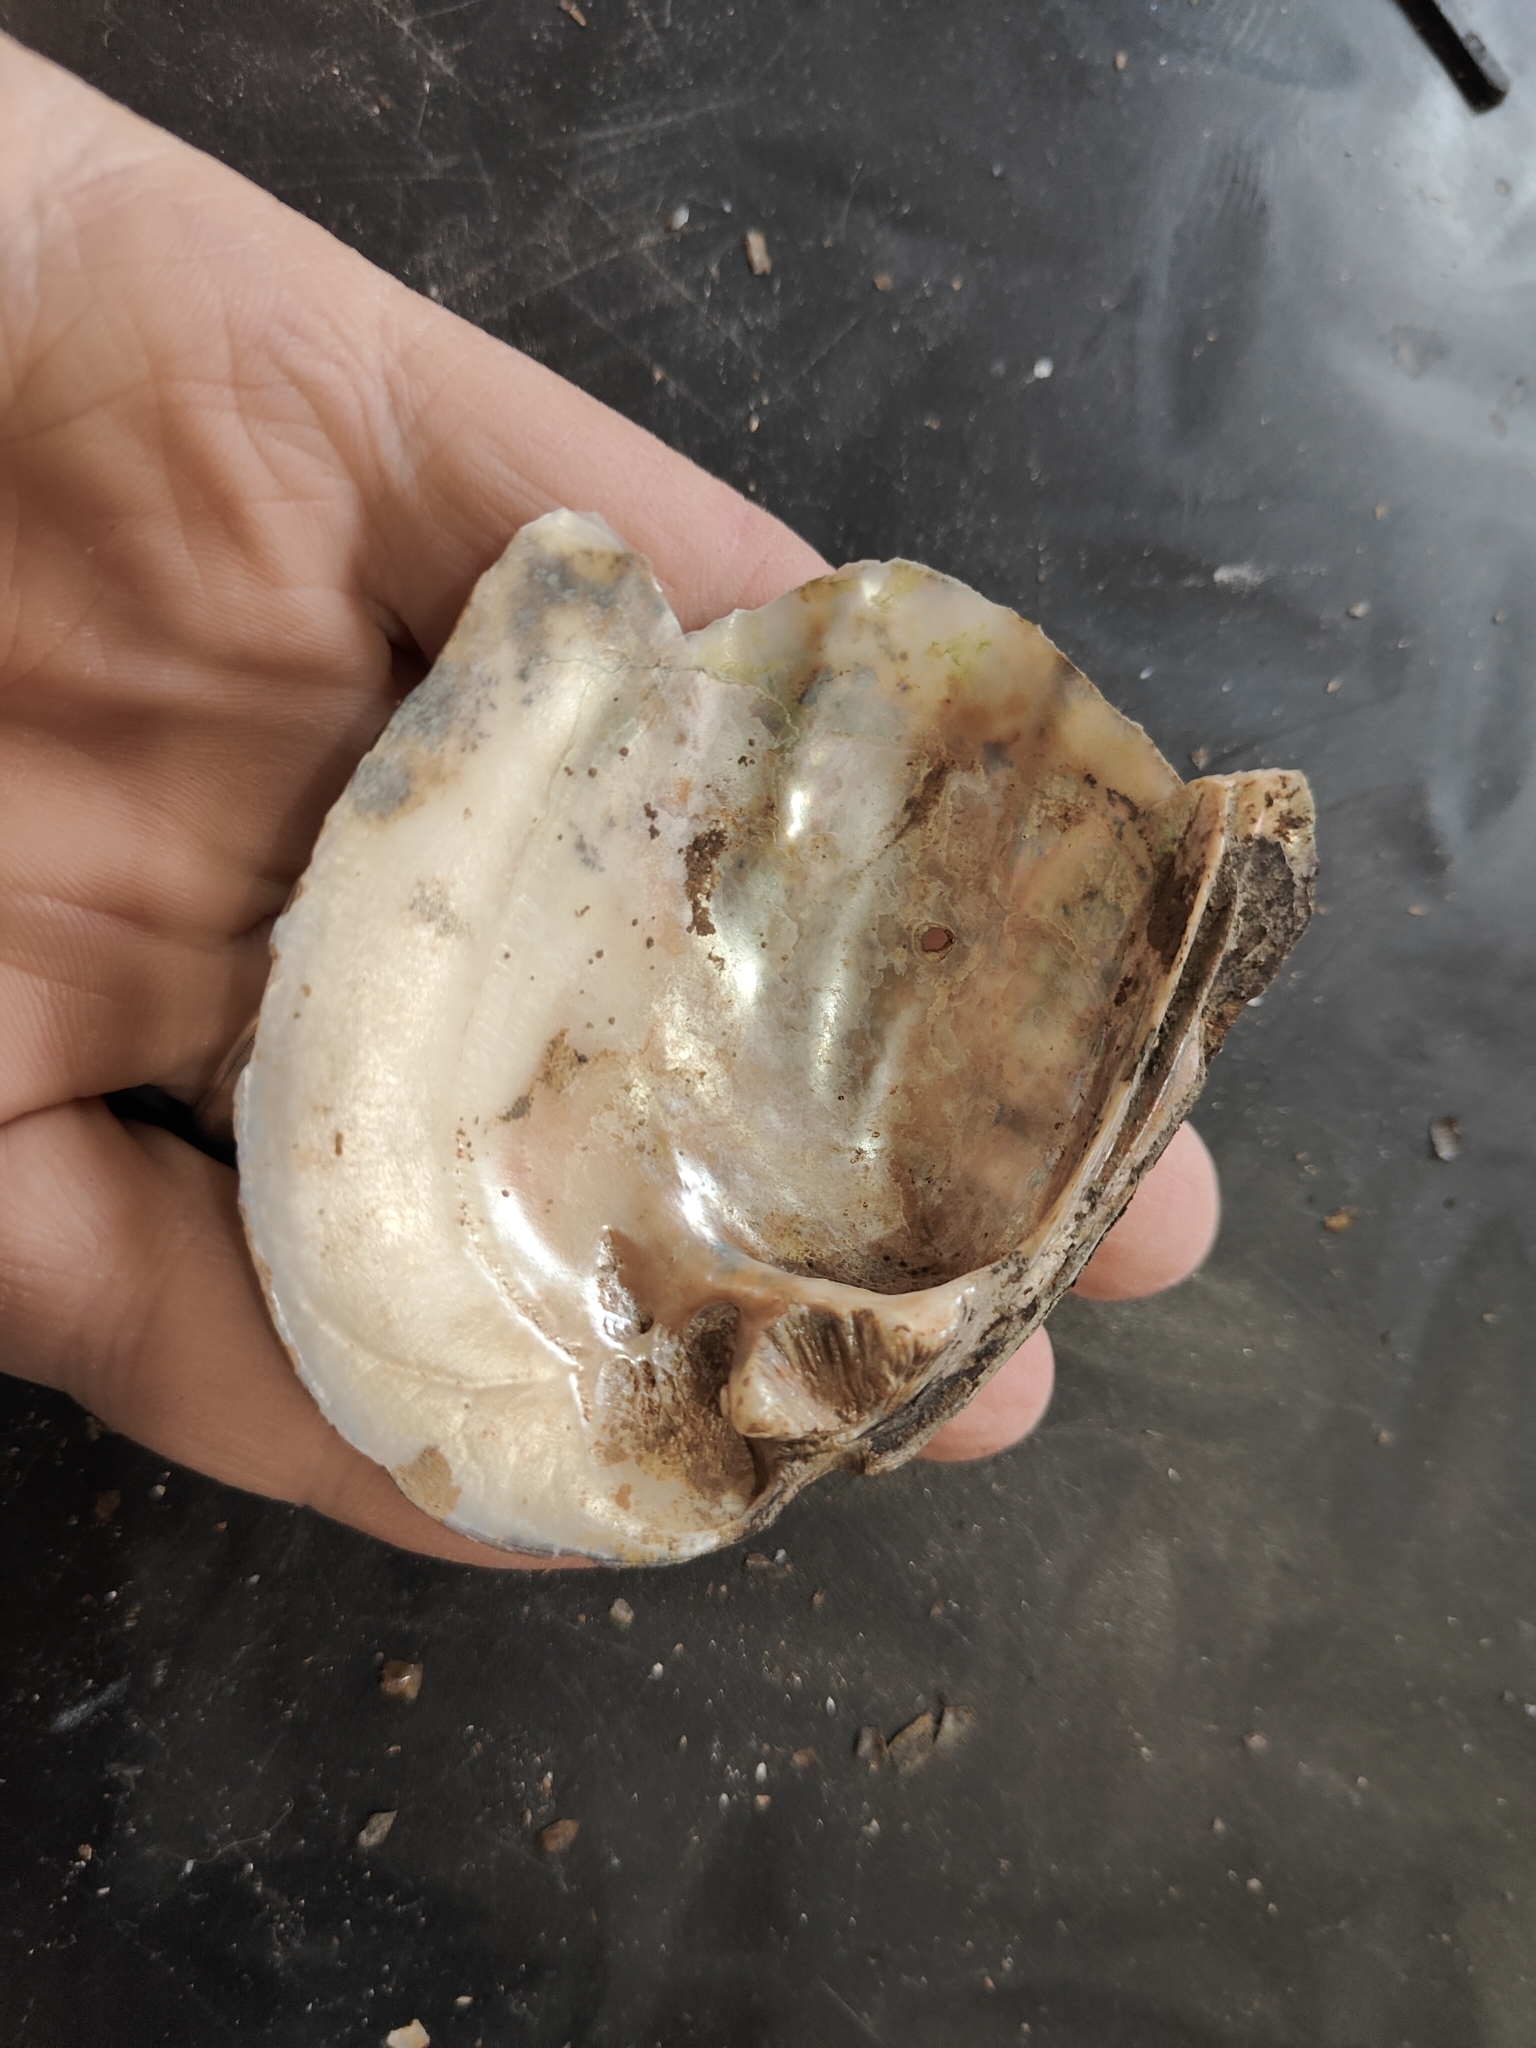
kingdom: Animalia
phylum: Mollusca
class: Bivalvia
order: Unionida
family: Unionidae
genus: Amblema
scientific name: Amblema plicata
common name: Threeridge
